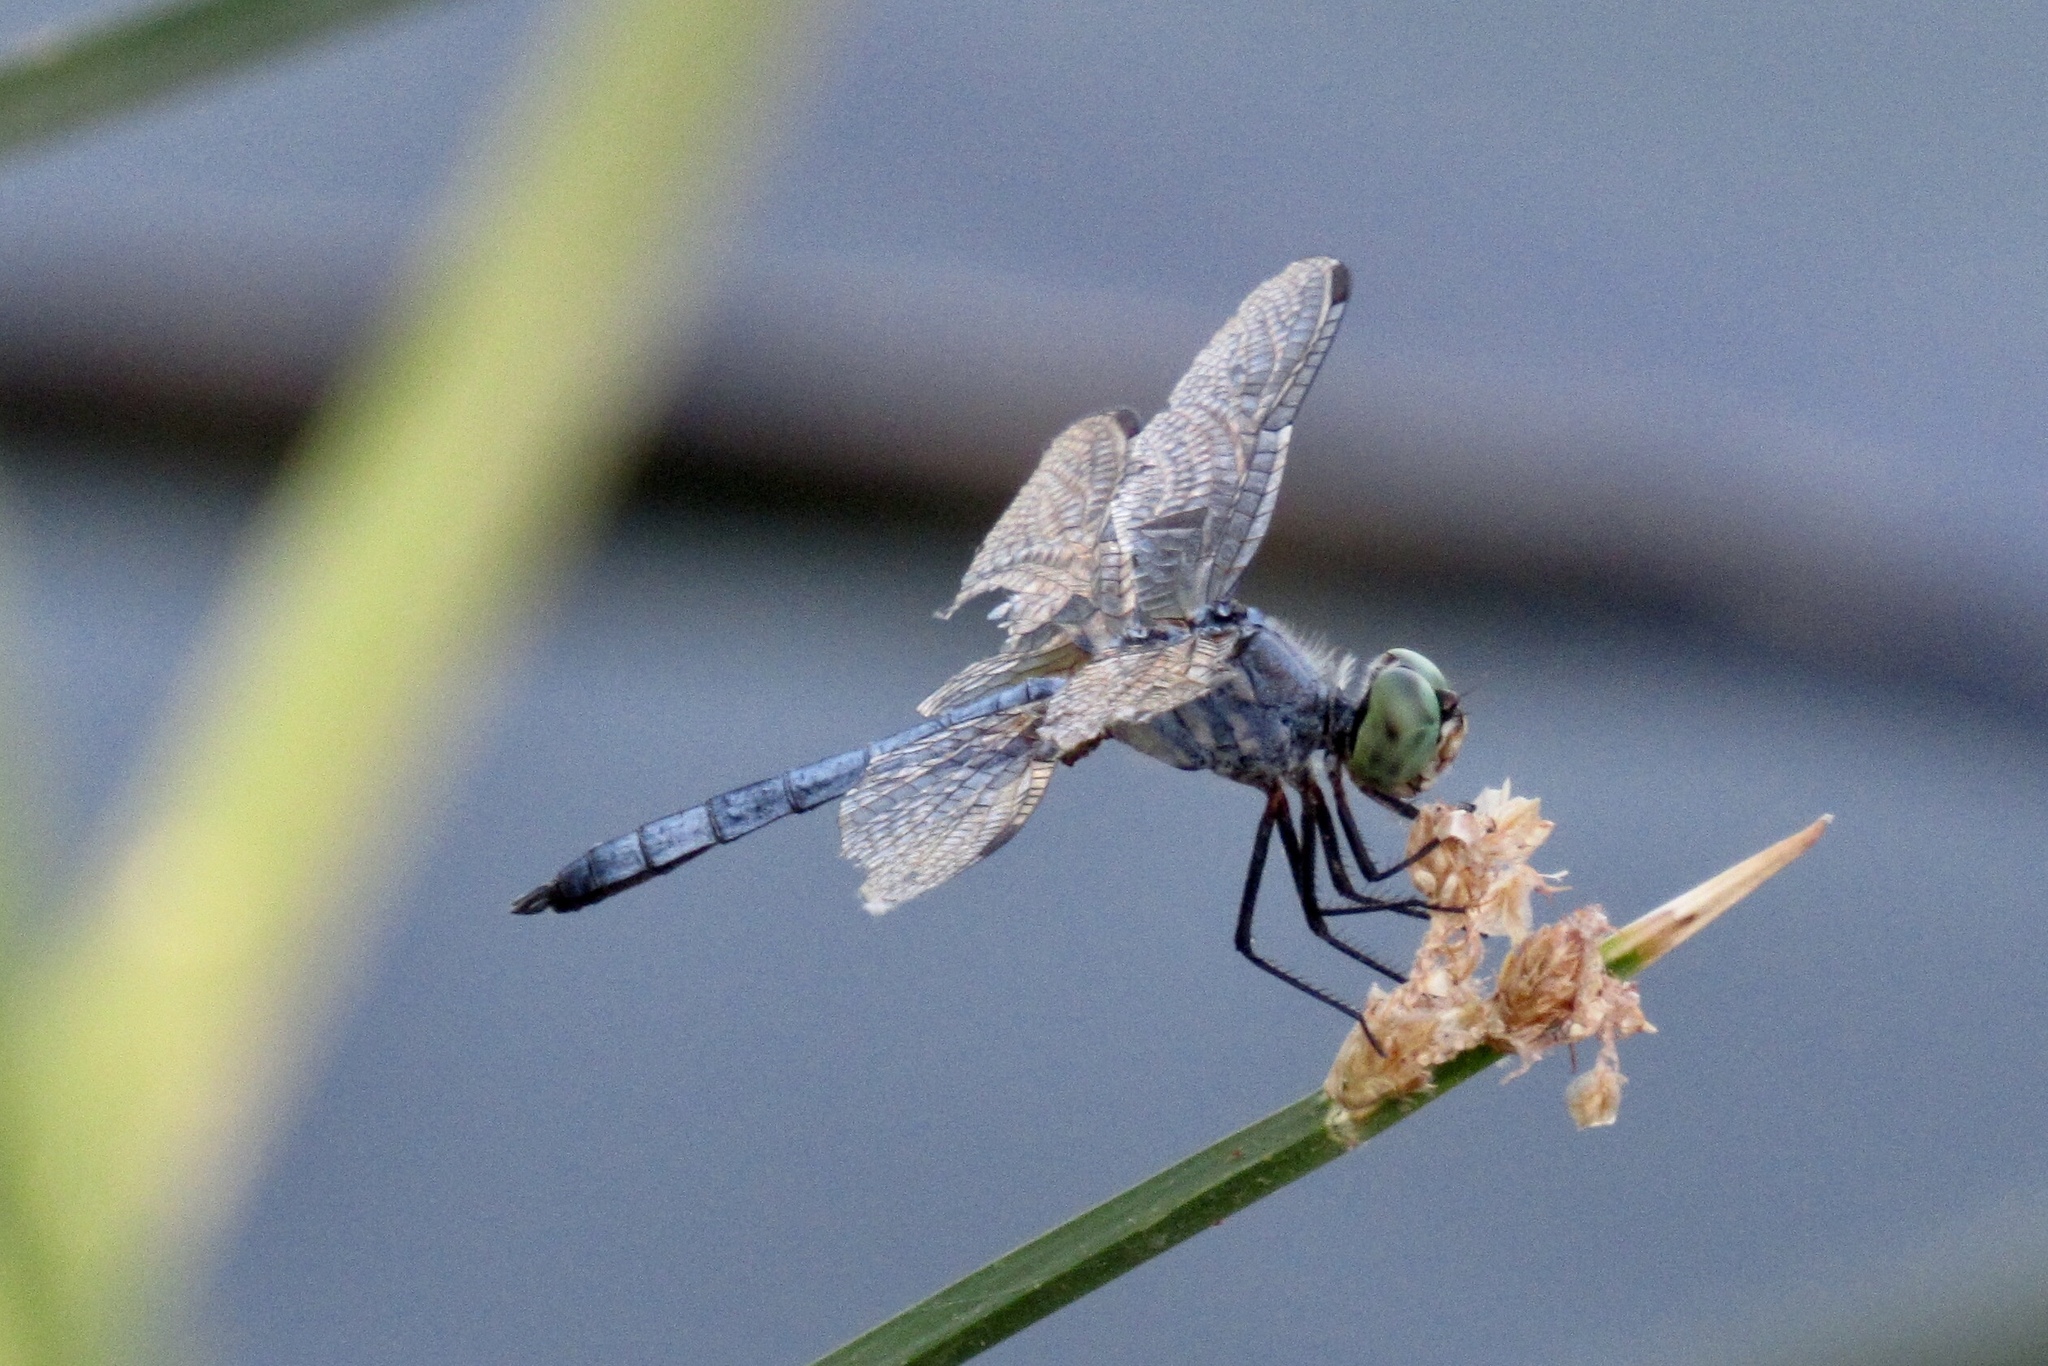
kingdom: Animalia
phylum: Arthropoda
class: Insecta
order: Odonata
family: Libellulidae
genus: Pachydiplax
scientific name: Pachydiplax longipennis
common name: Blue dasher
